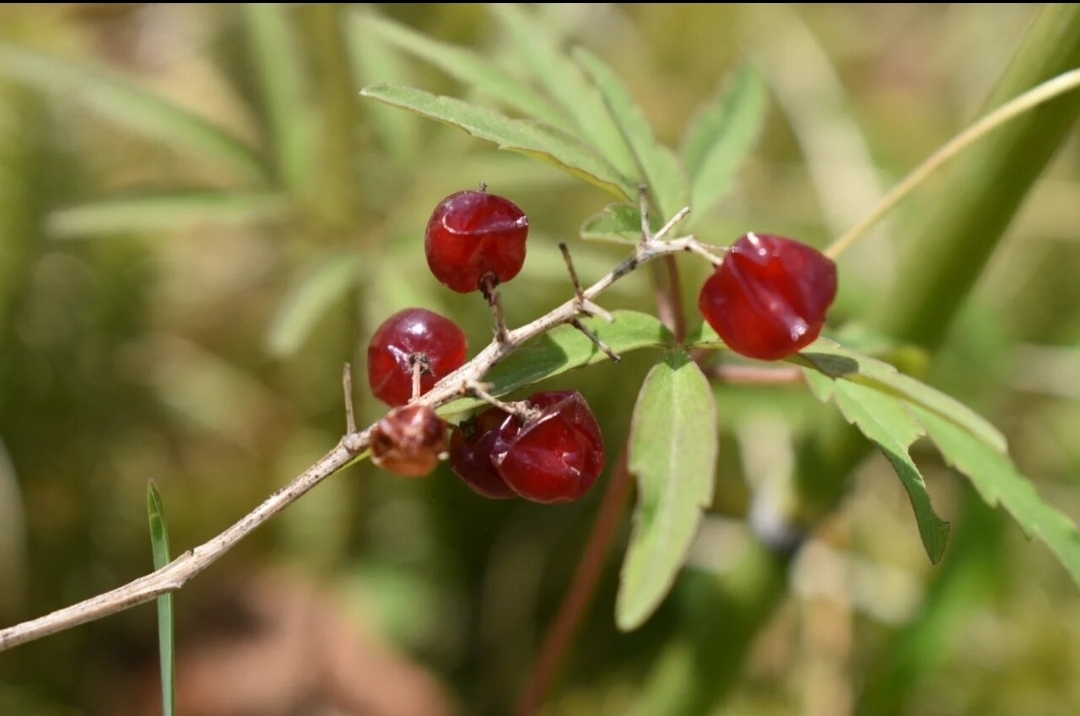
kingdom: Plantae
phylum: Tracheophyta
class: Liliopsida
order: Asparagales
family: Asparagaceae
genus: Maianthemum
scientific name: Maianthemum dilatatum
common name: False lily-of-the-valley
